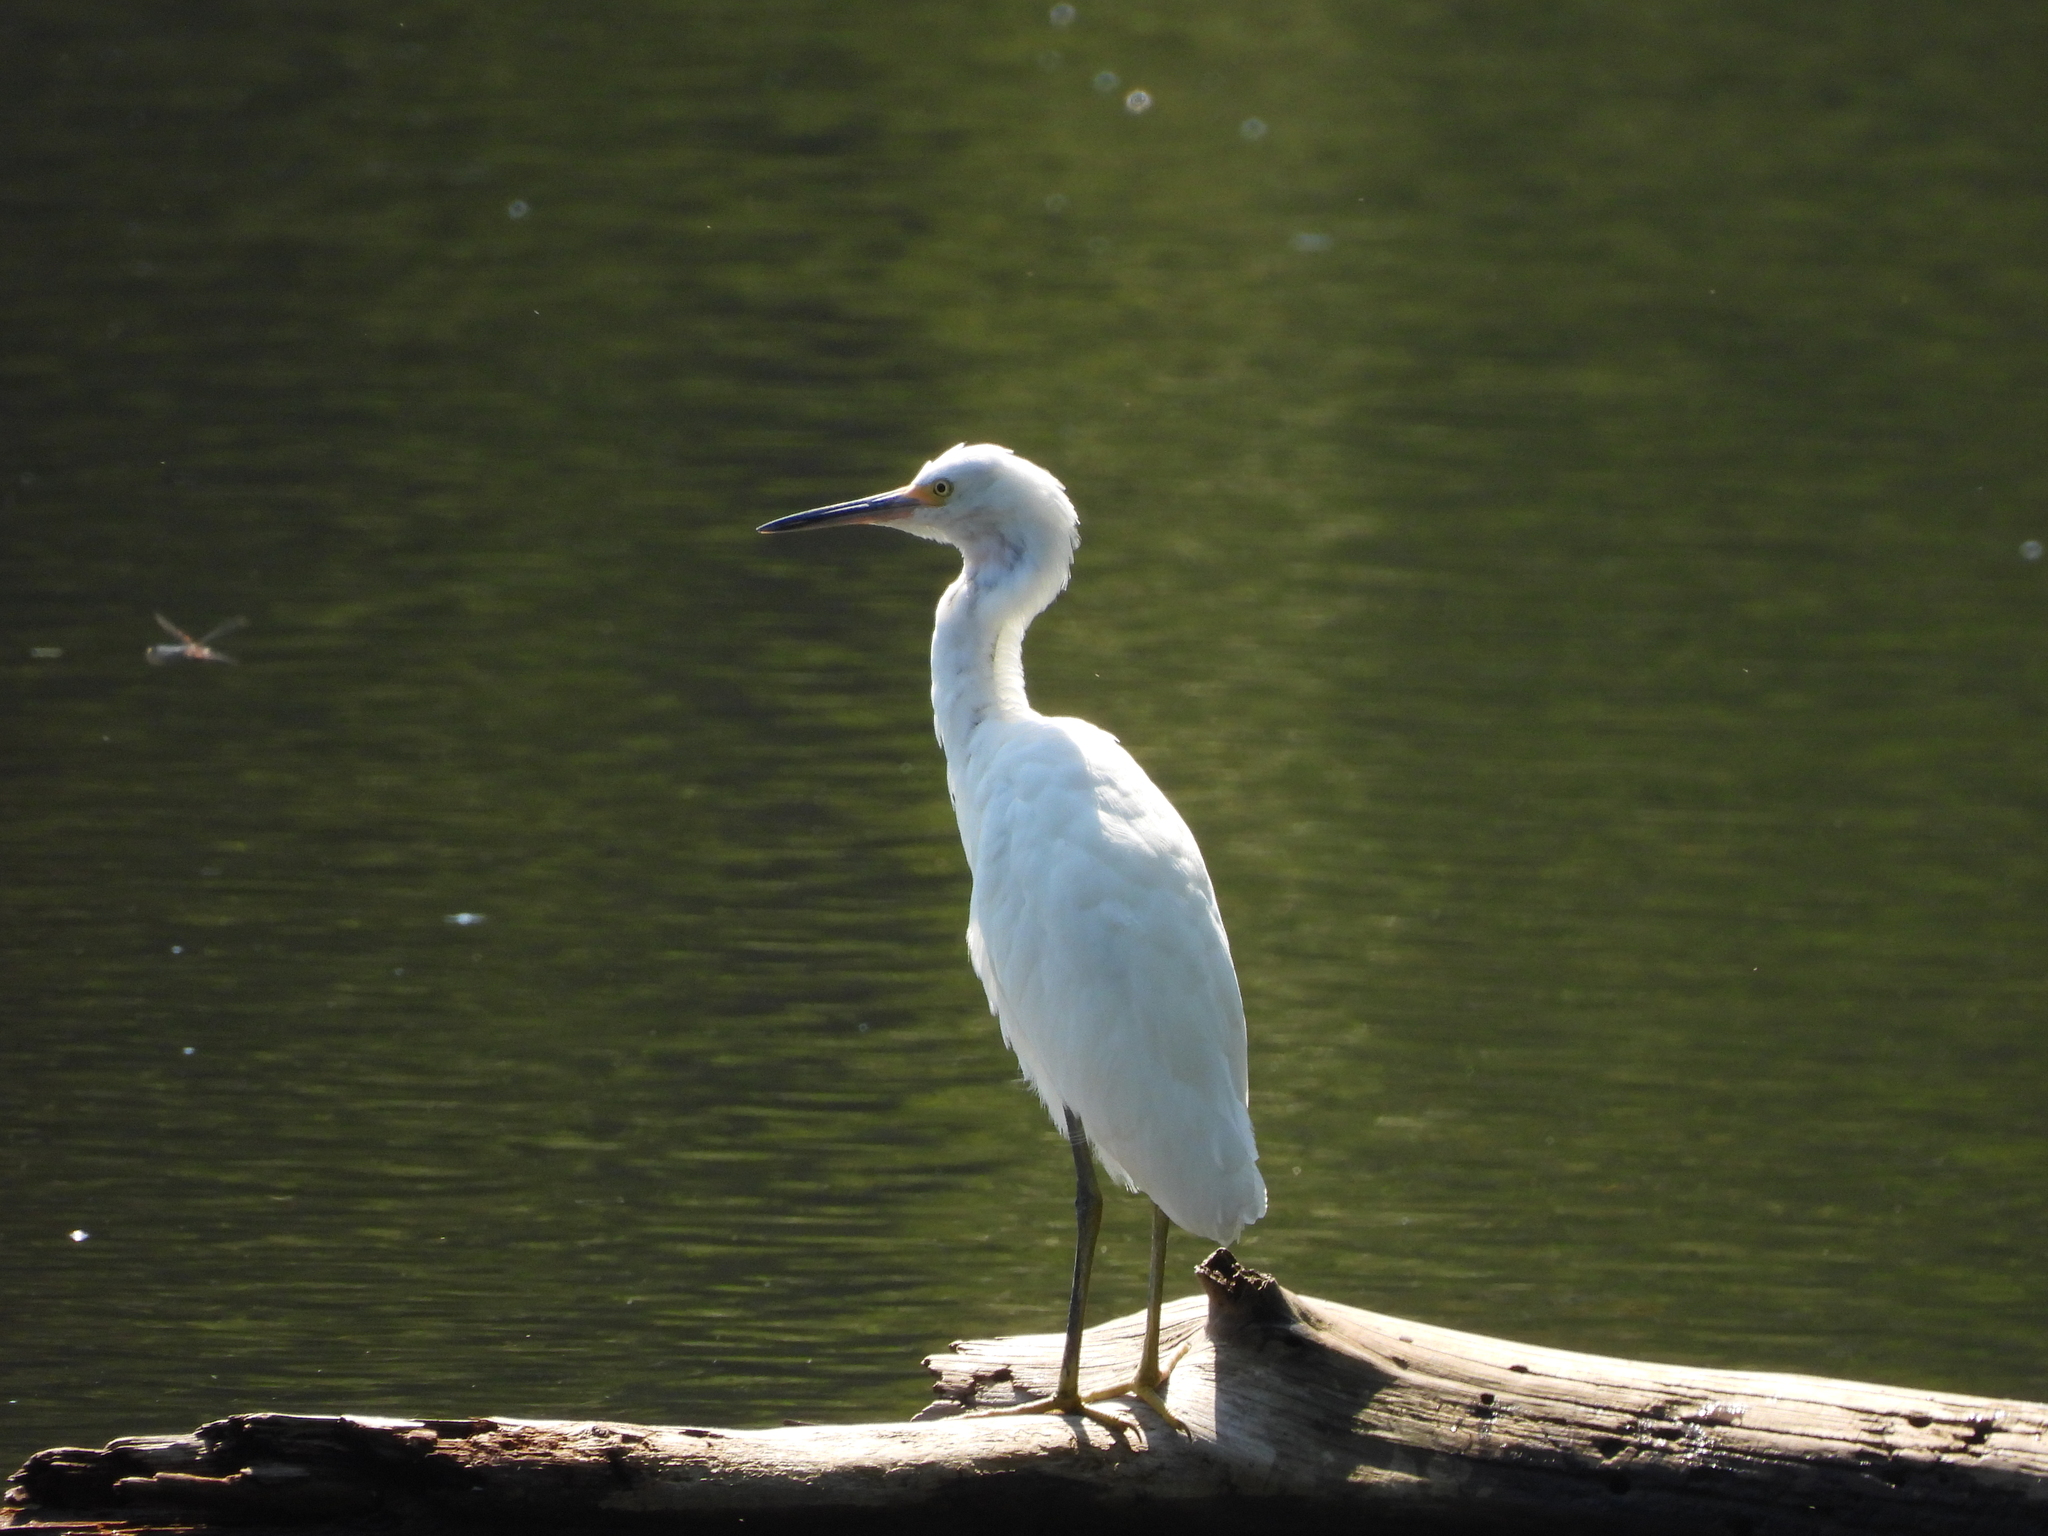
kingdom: Animalia
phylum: Chordata
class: Aves
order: Pelecaniformes
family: Ardeidae
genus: Egretta
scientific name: Egretta thula
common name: Snowy egret
